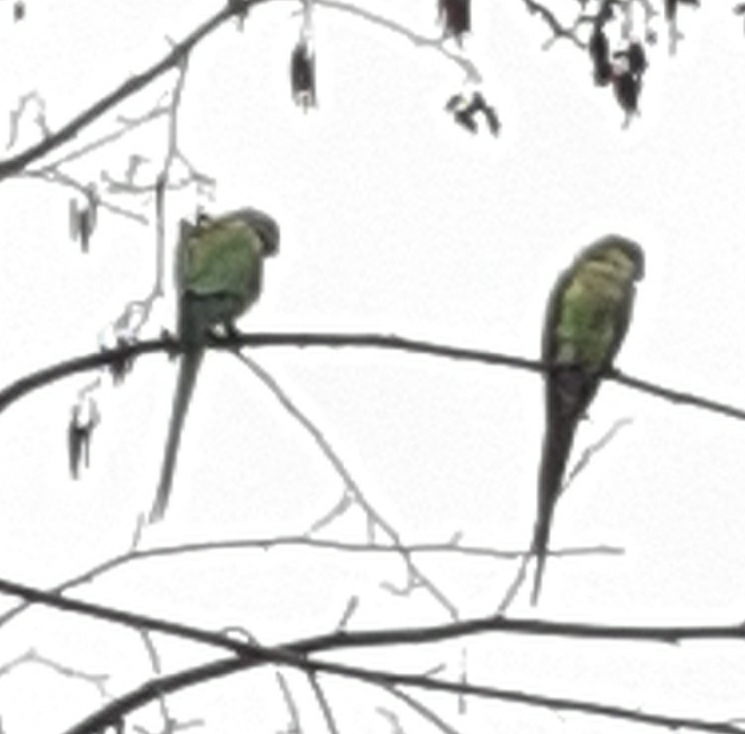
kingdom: Animalia
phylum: Chordata
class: Aves
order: Psittaciformes
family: Psittacidae
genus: Psittacula
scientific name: Psittacula krameri
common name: Rose-ringed parakeet
